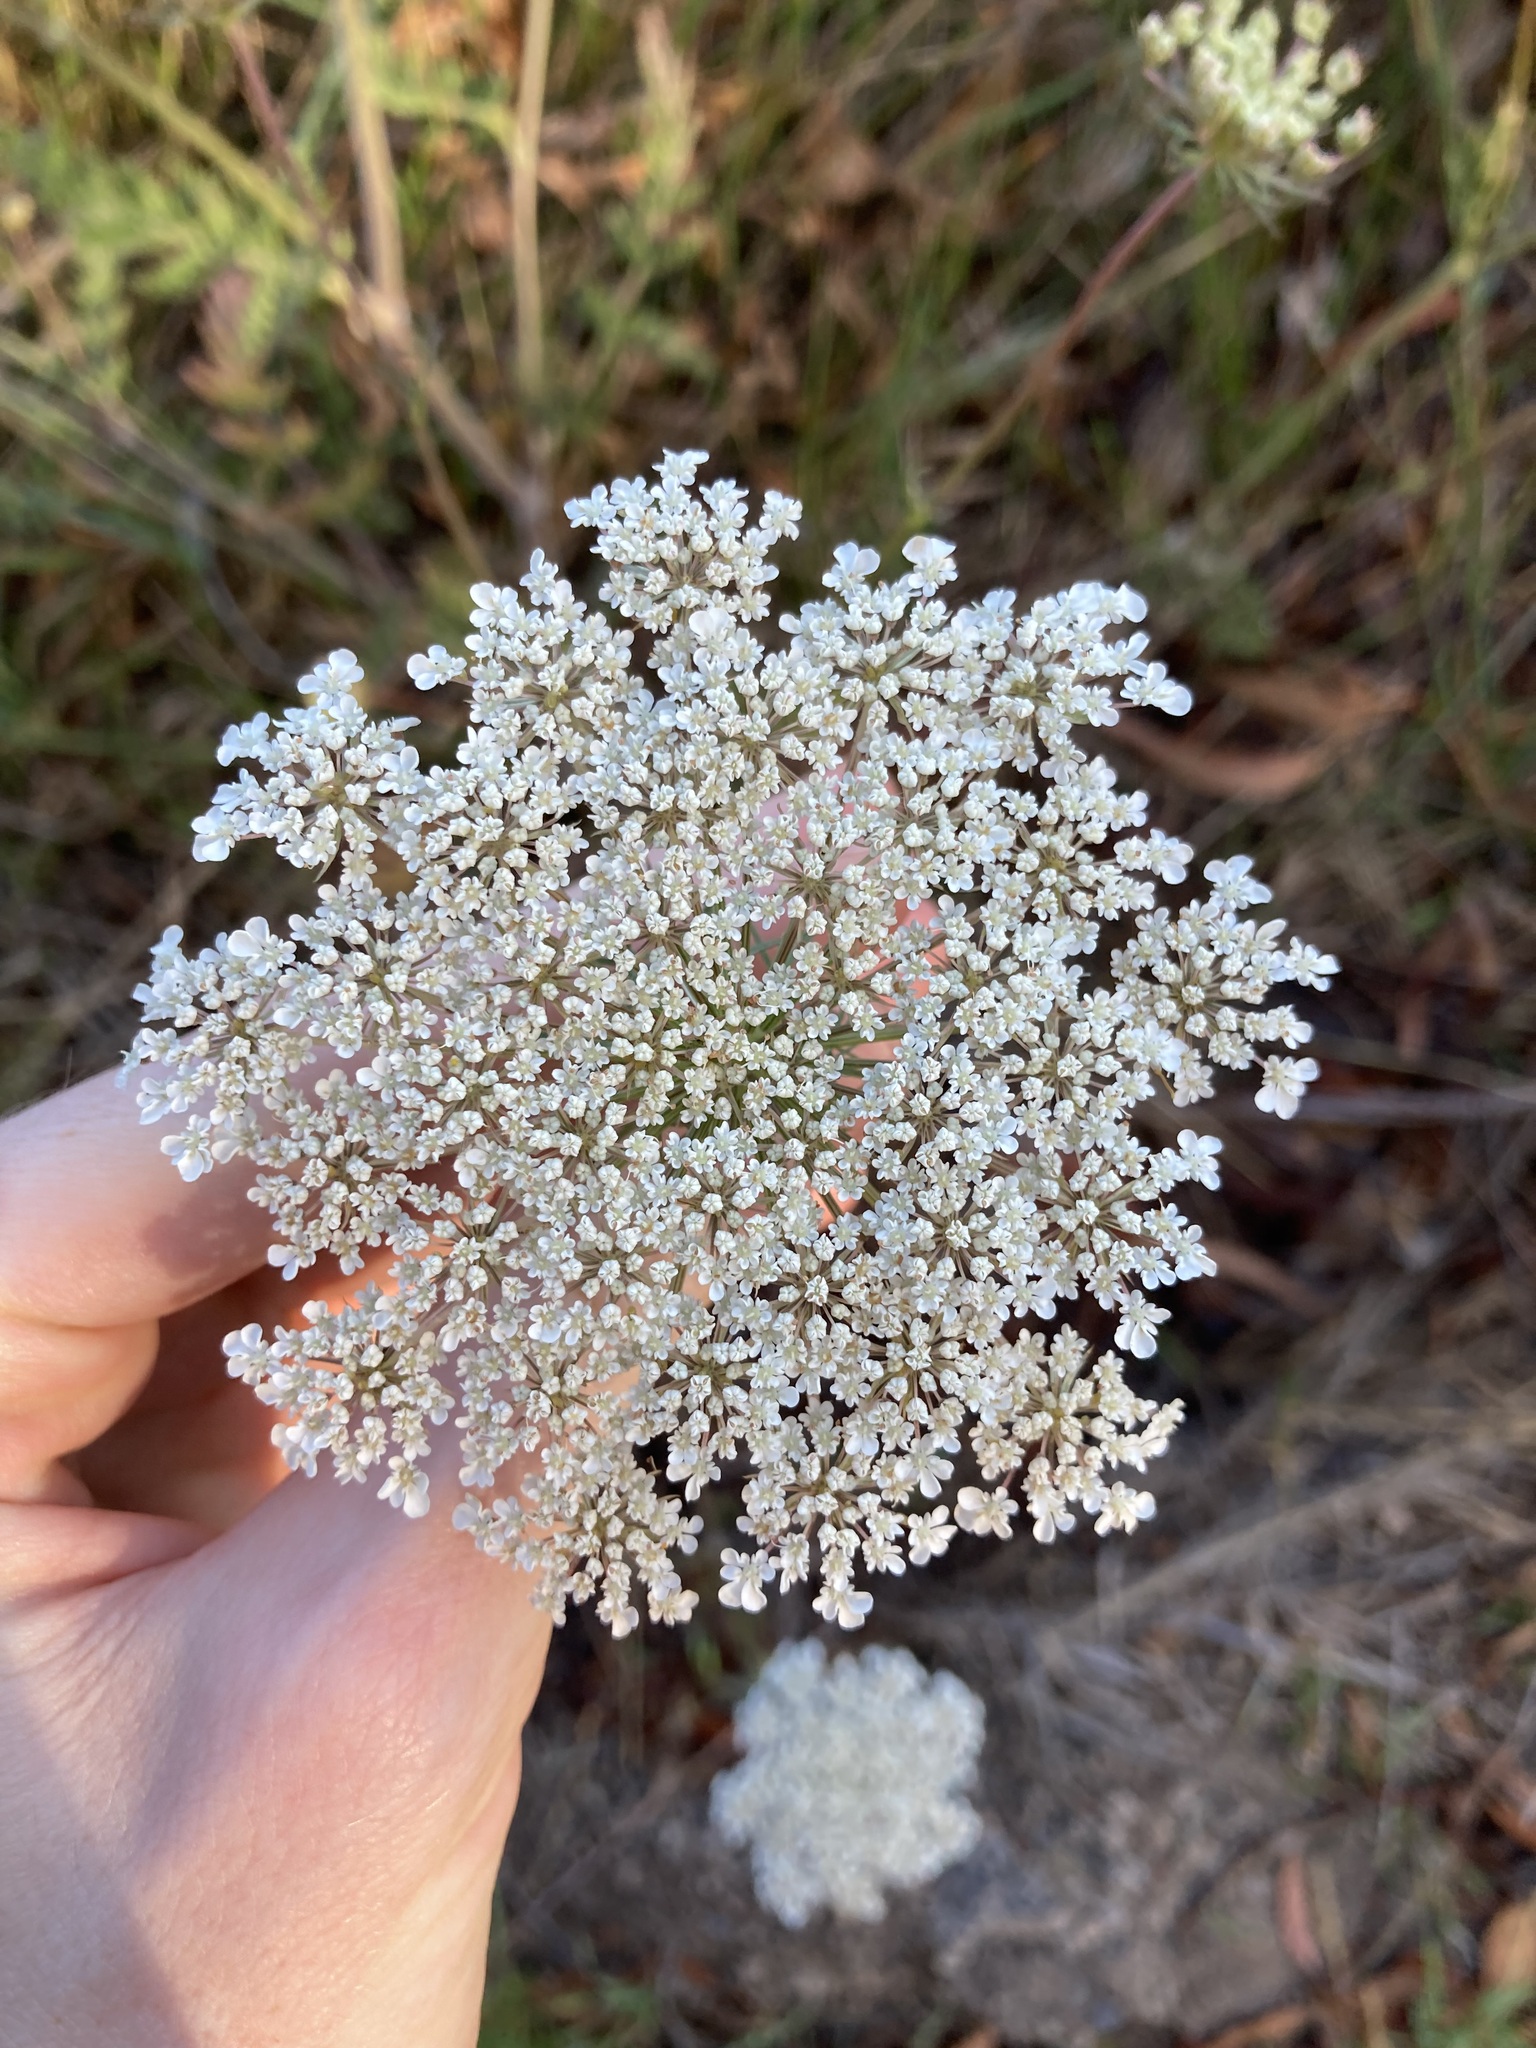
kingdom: Plantae
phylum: Tracheophyta
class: Magnoliopsida
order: Apiales
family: Apiaceae
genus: Daucus
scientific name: Daucus carota
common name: Wild carrot
